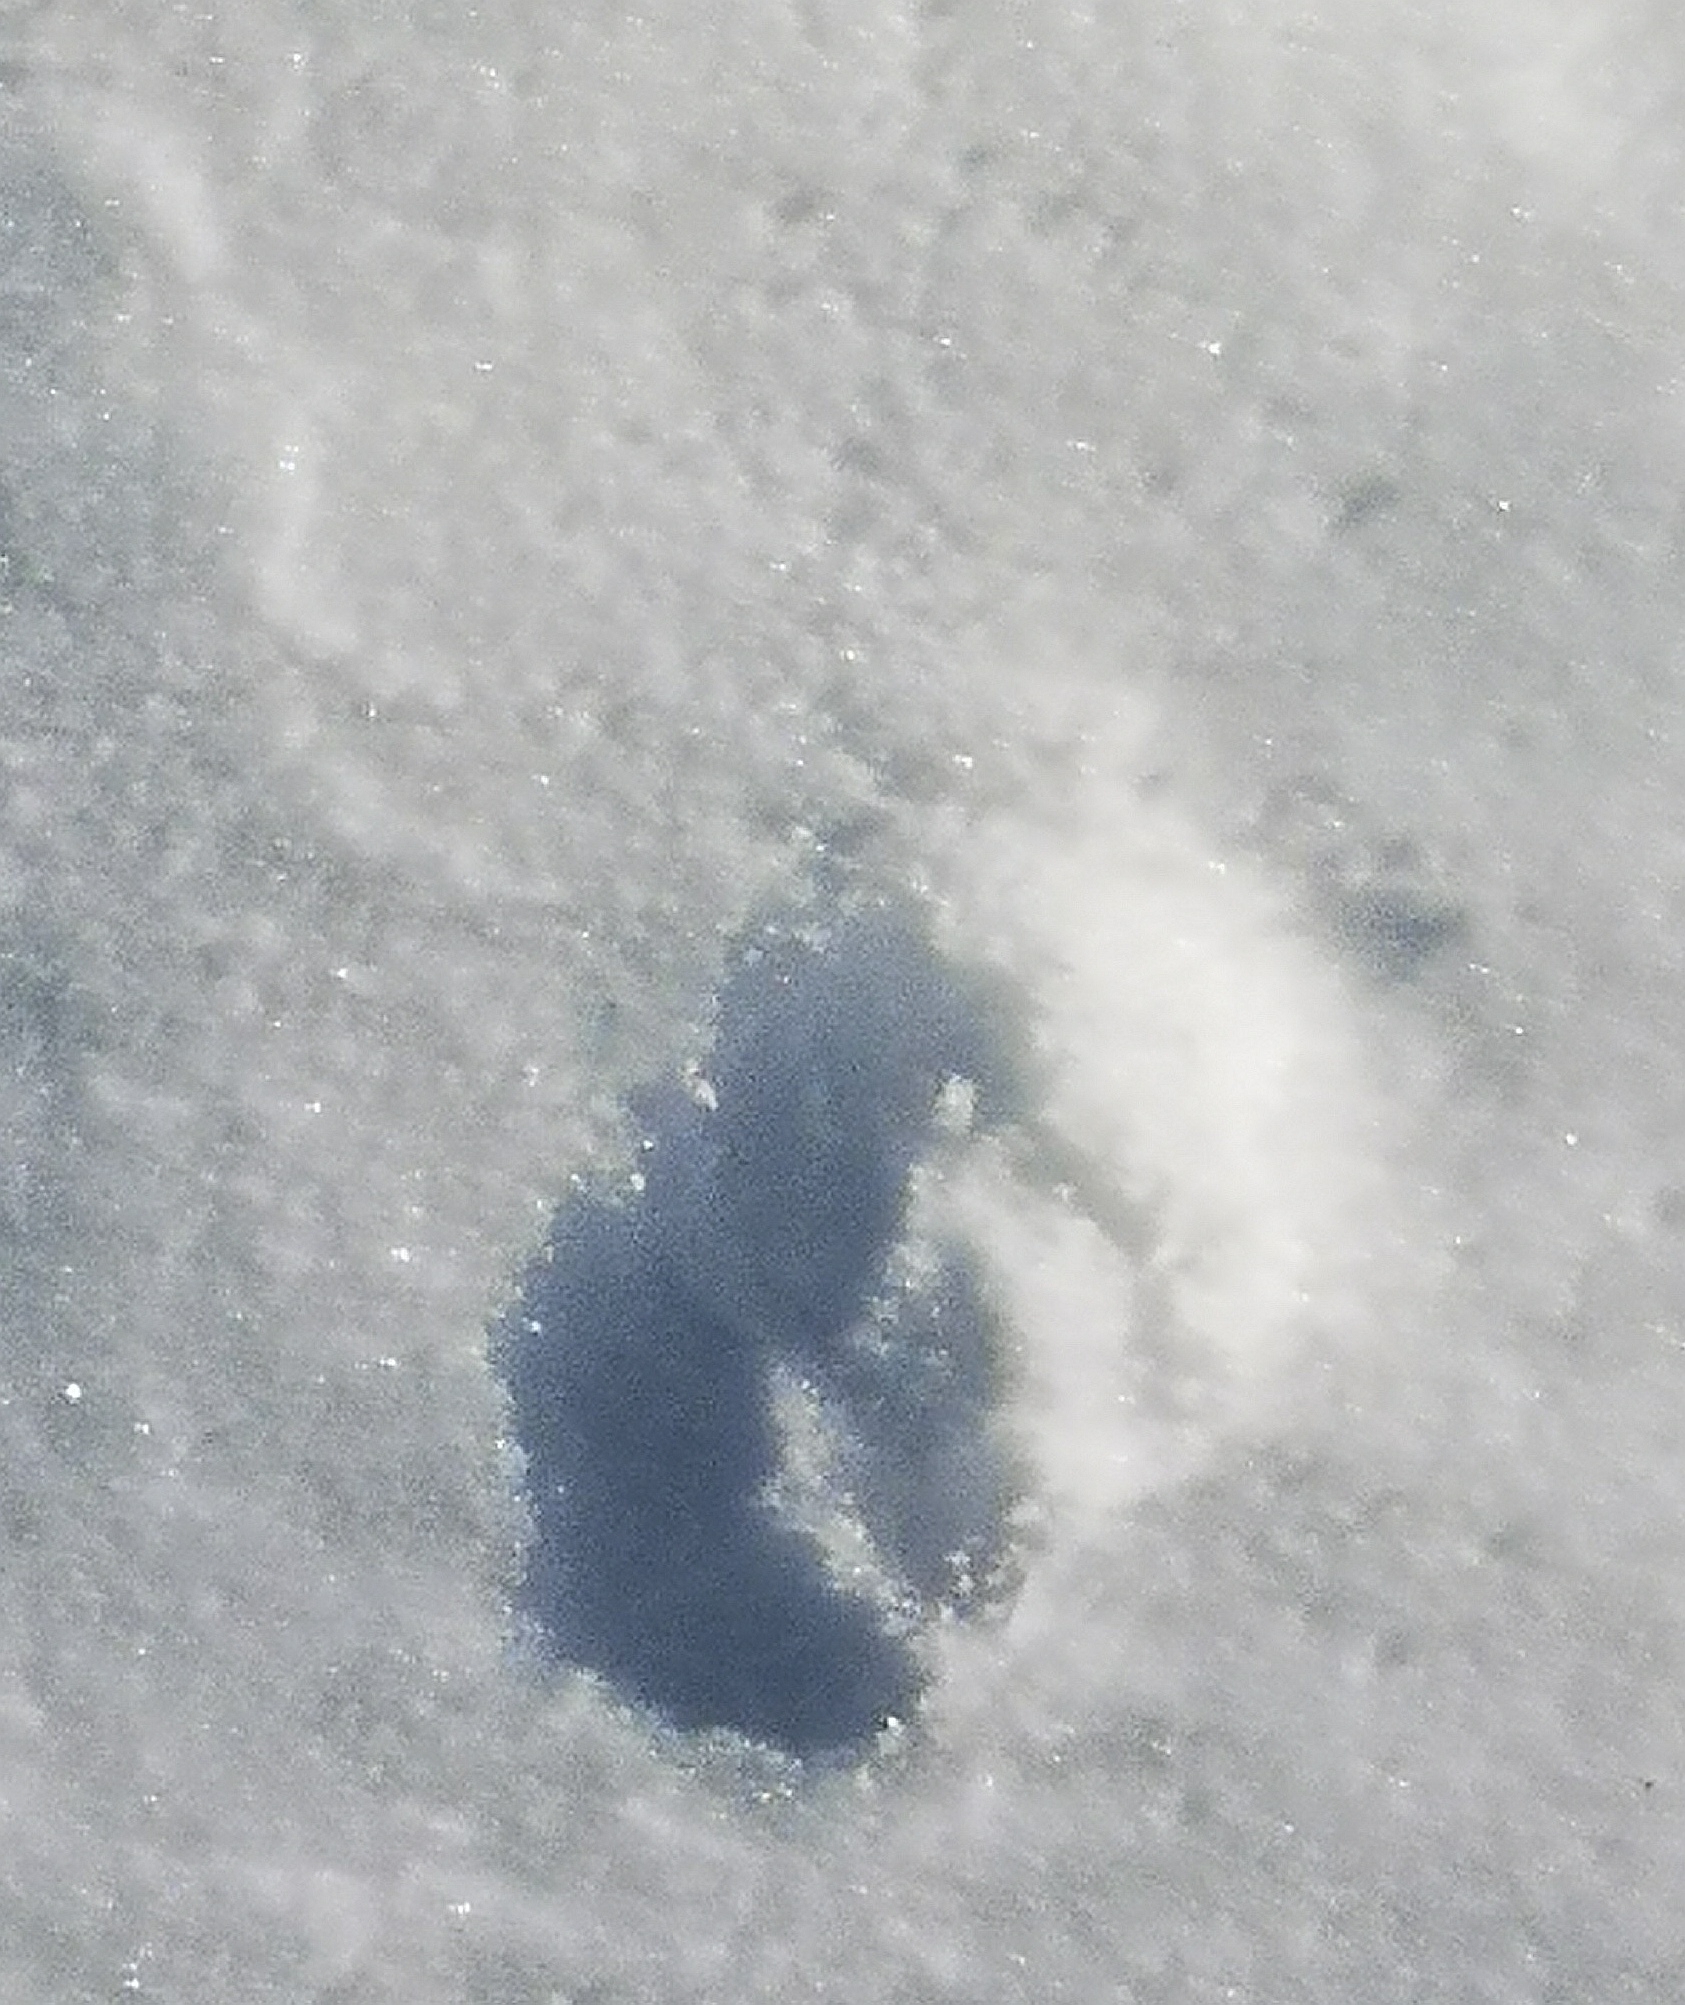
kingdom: Animalia
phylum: Chordata
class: Mammalia
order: Carnivora
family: Canidae
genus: Vulpes
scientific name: Vulpes vulpes
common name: Red fox
